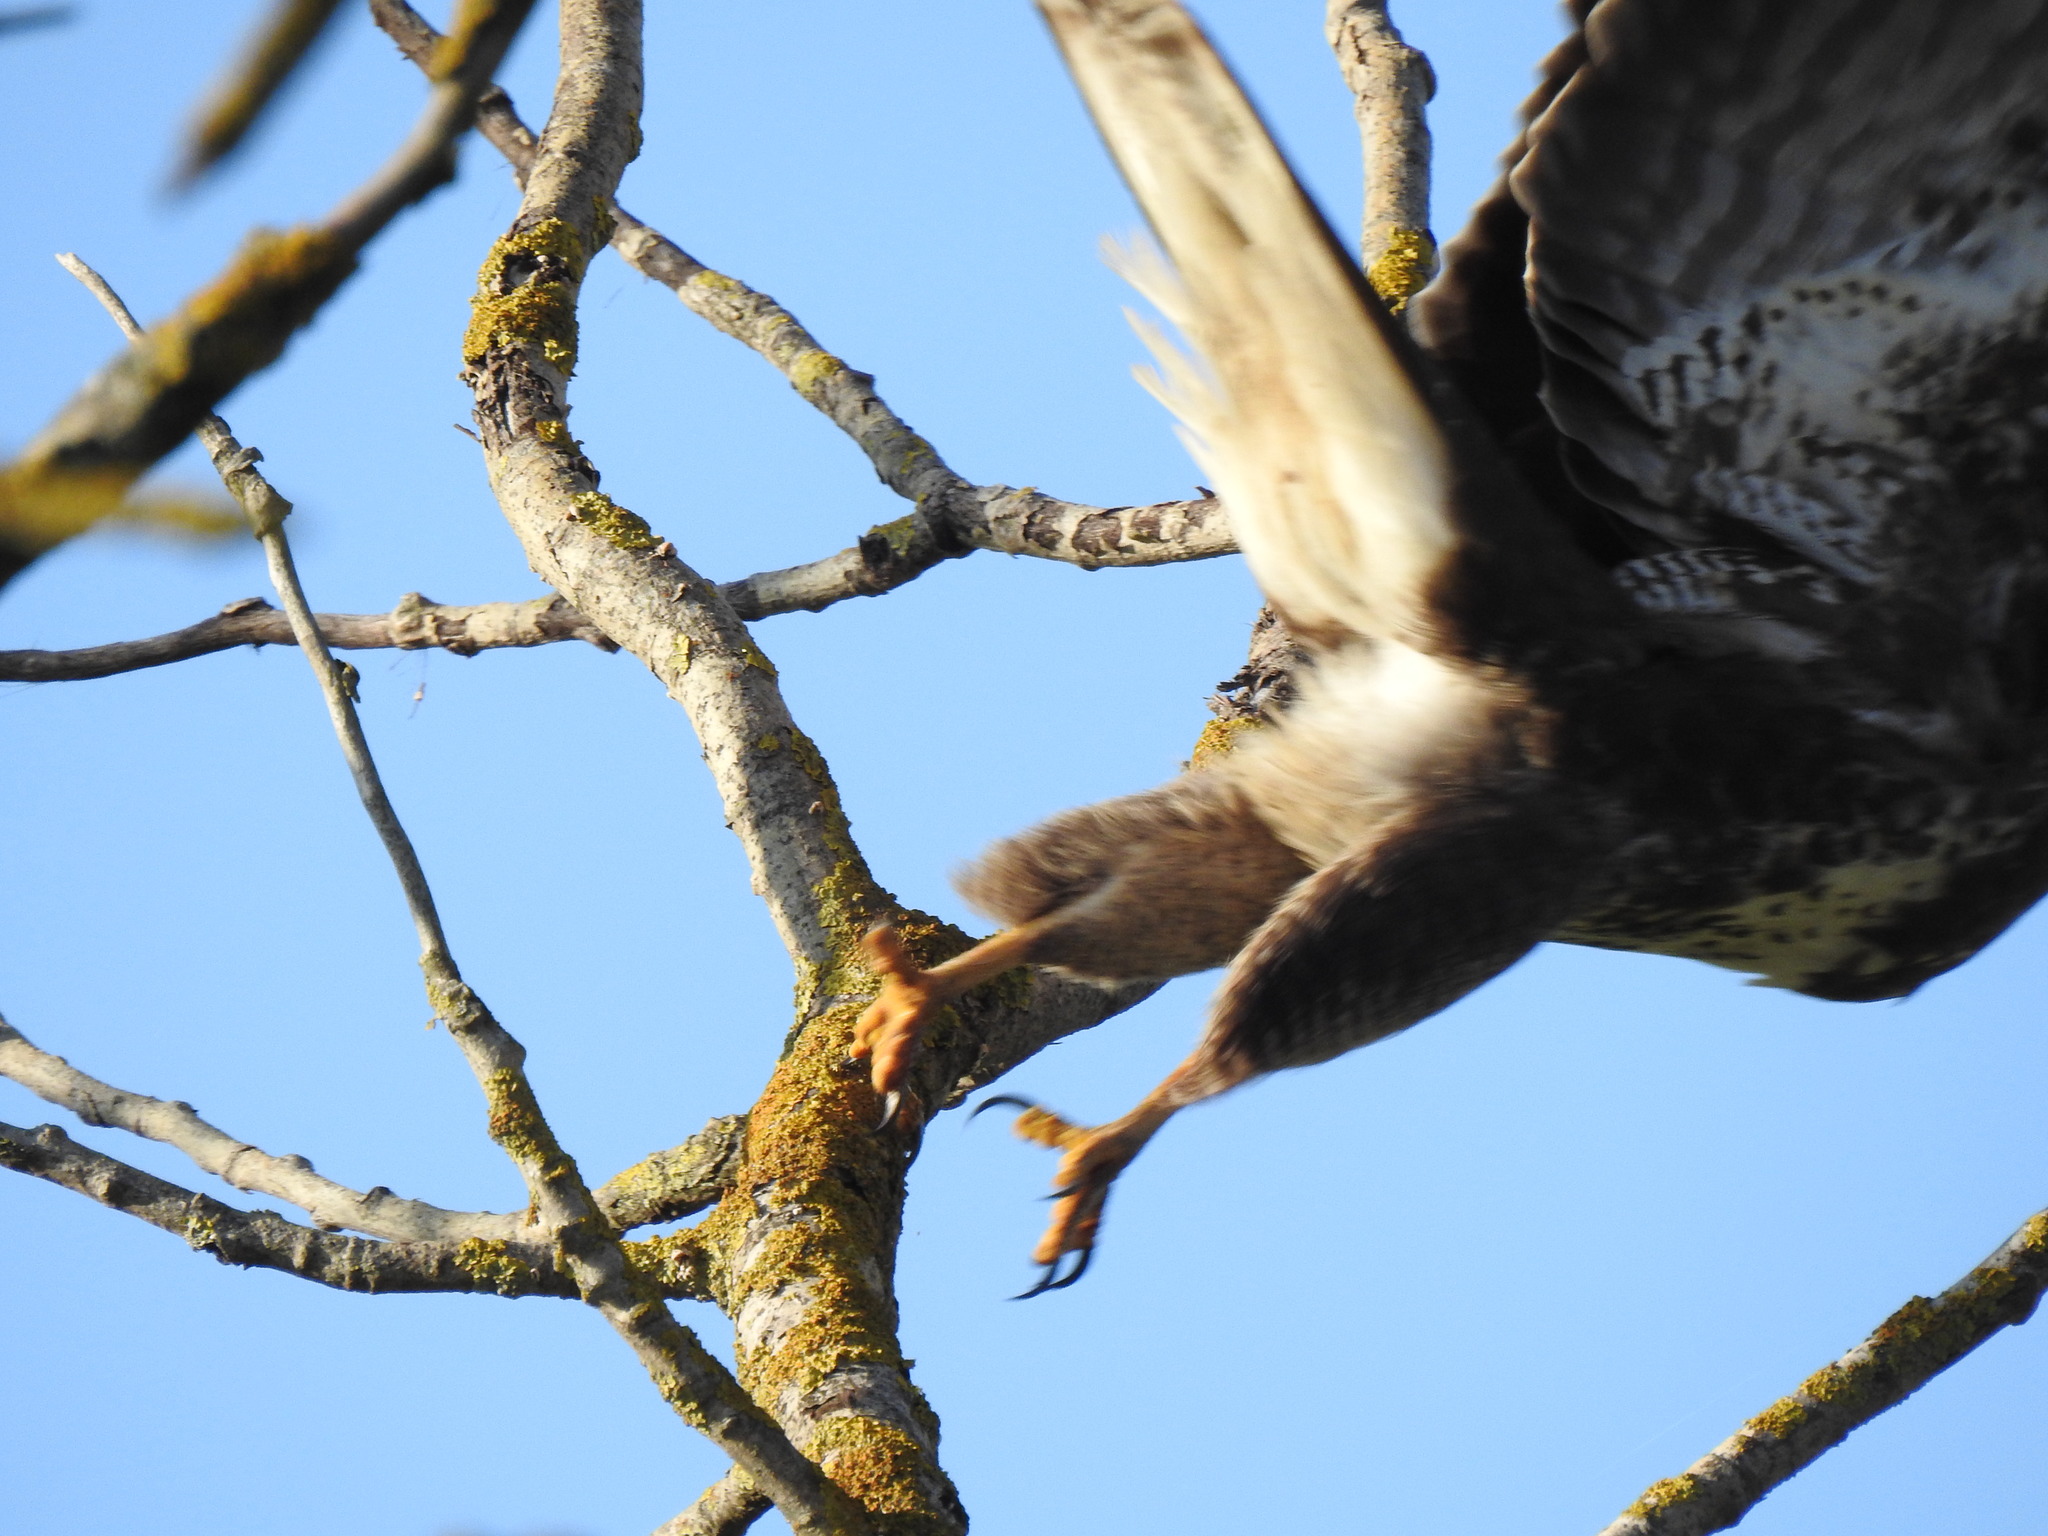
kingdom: Animalia
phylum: Chordata
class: Aves
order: Accipitriformes
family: Accipitridae
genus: Buteo
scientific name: Buteo buteo
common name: Common buzzard
